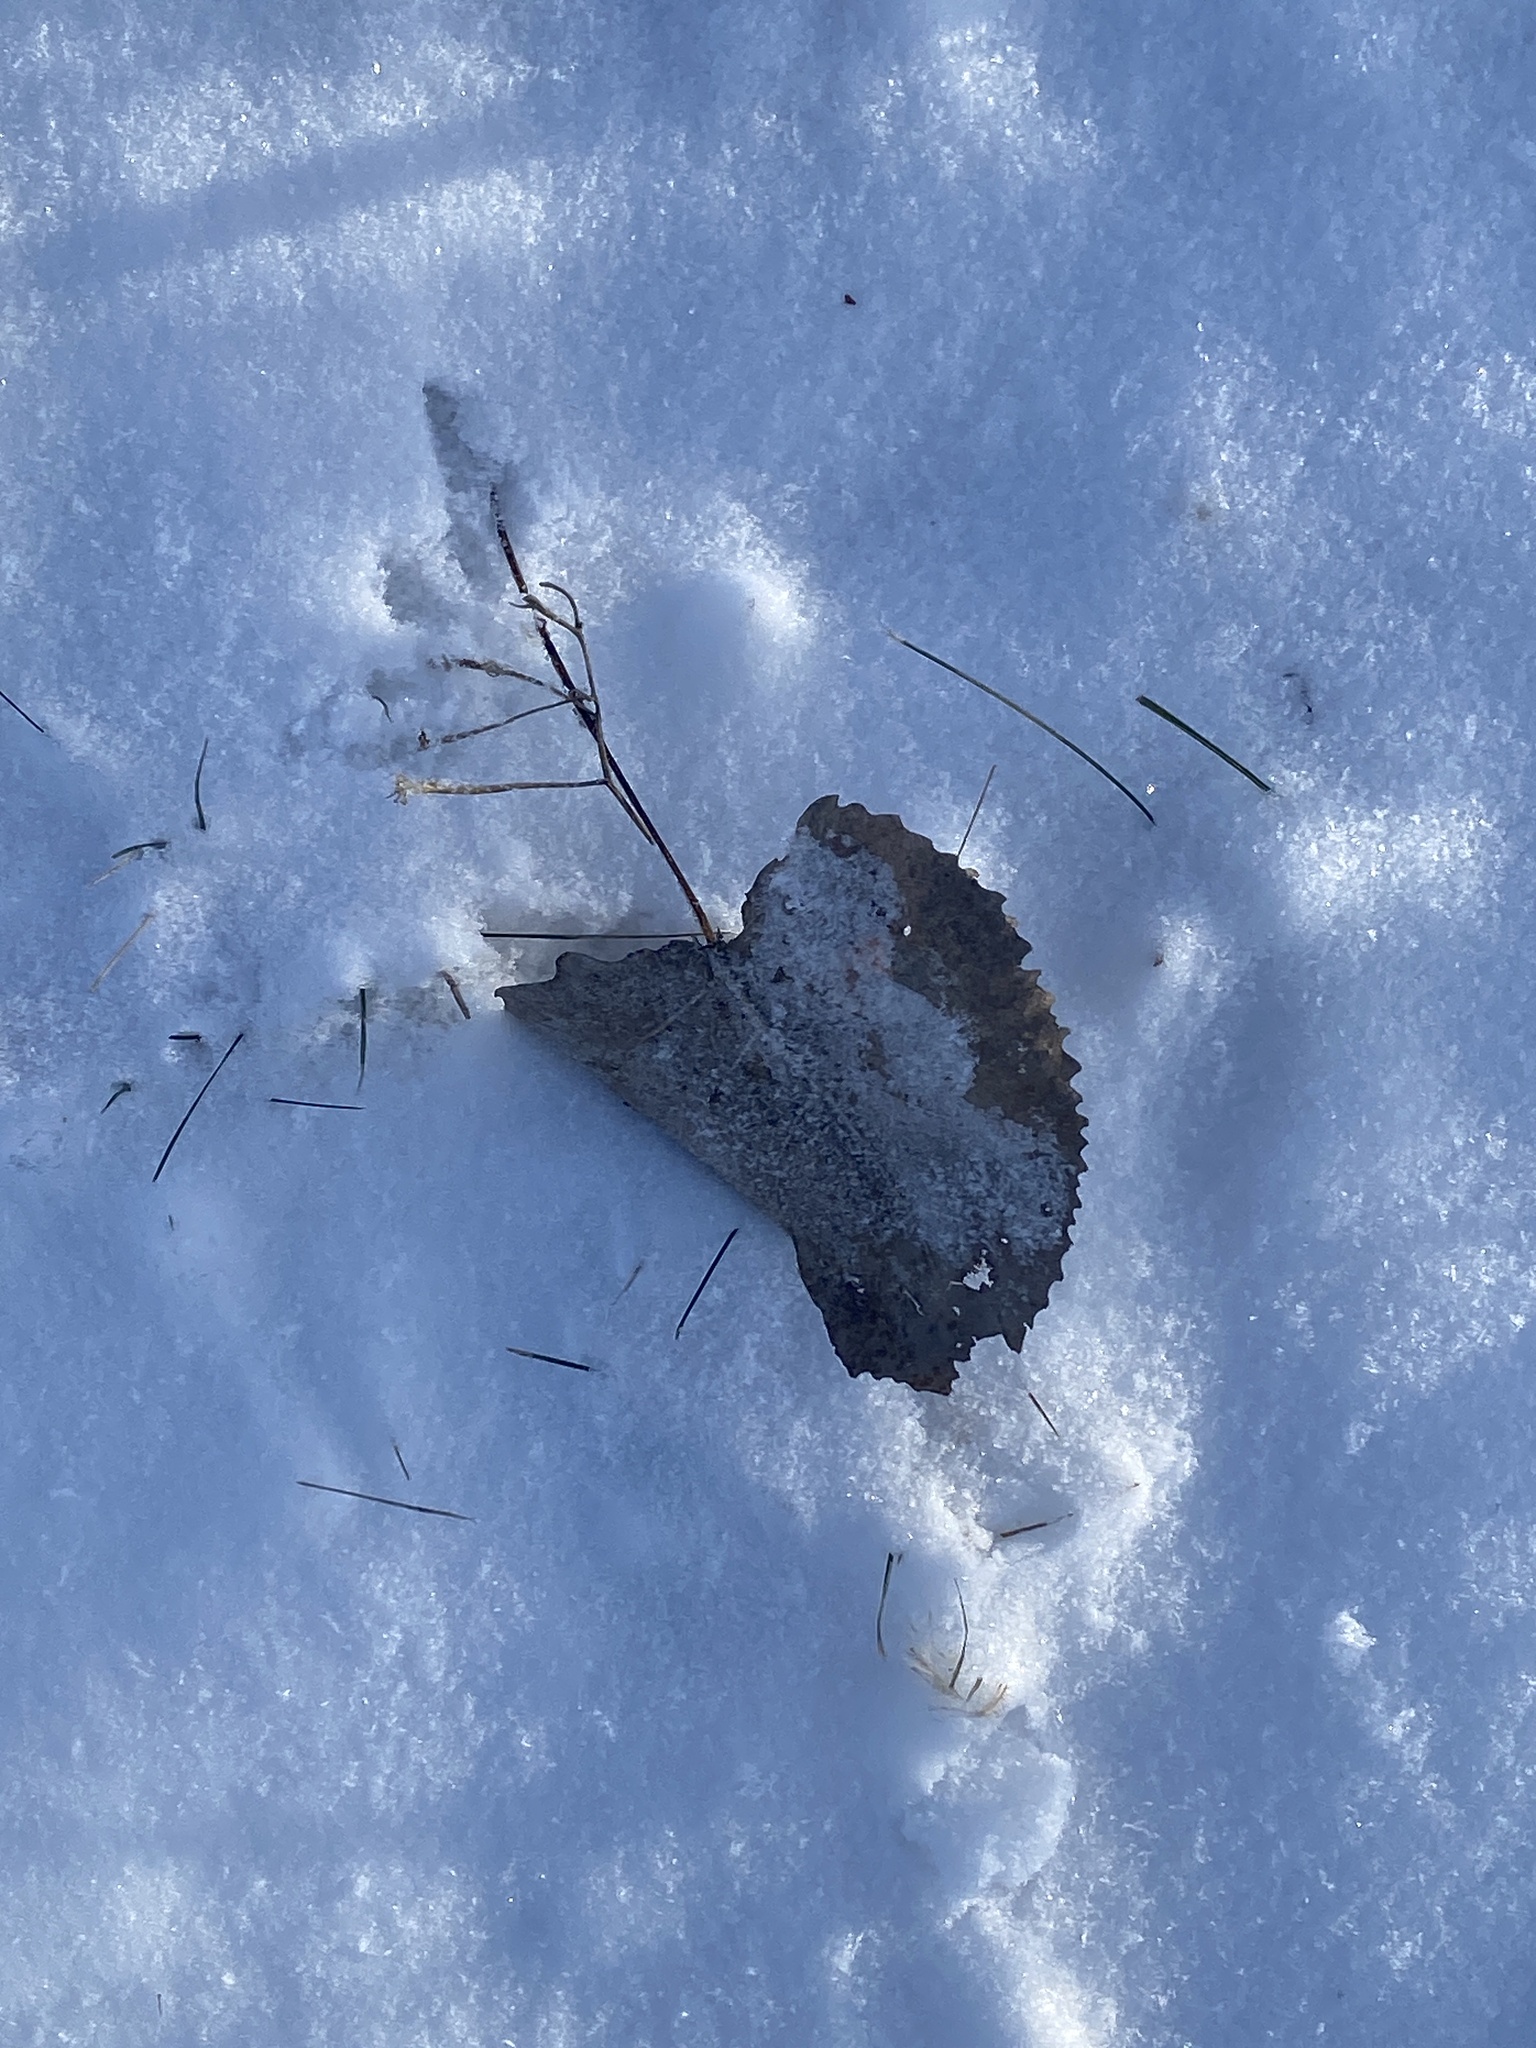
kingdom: Plantae
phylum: Tracheophyta
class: Magnoliopsida
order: Malpighiales
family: Salicaceae
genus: Populus
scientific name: Populus deltoides
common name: Eastern cottonwood
